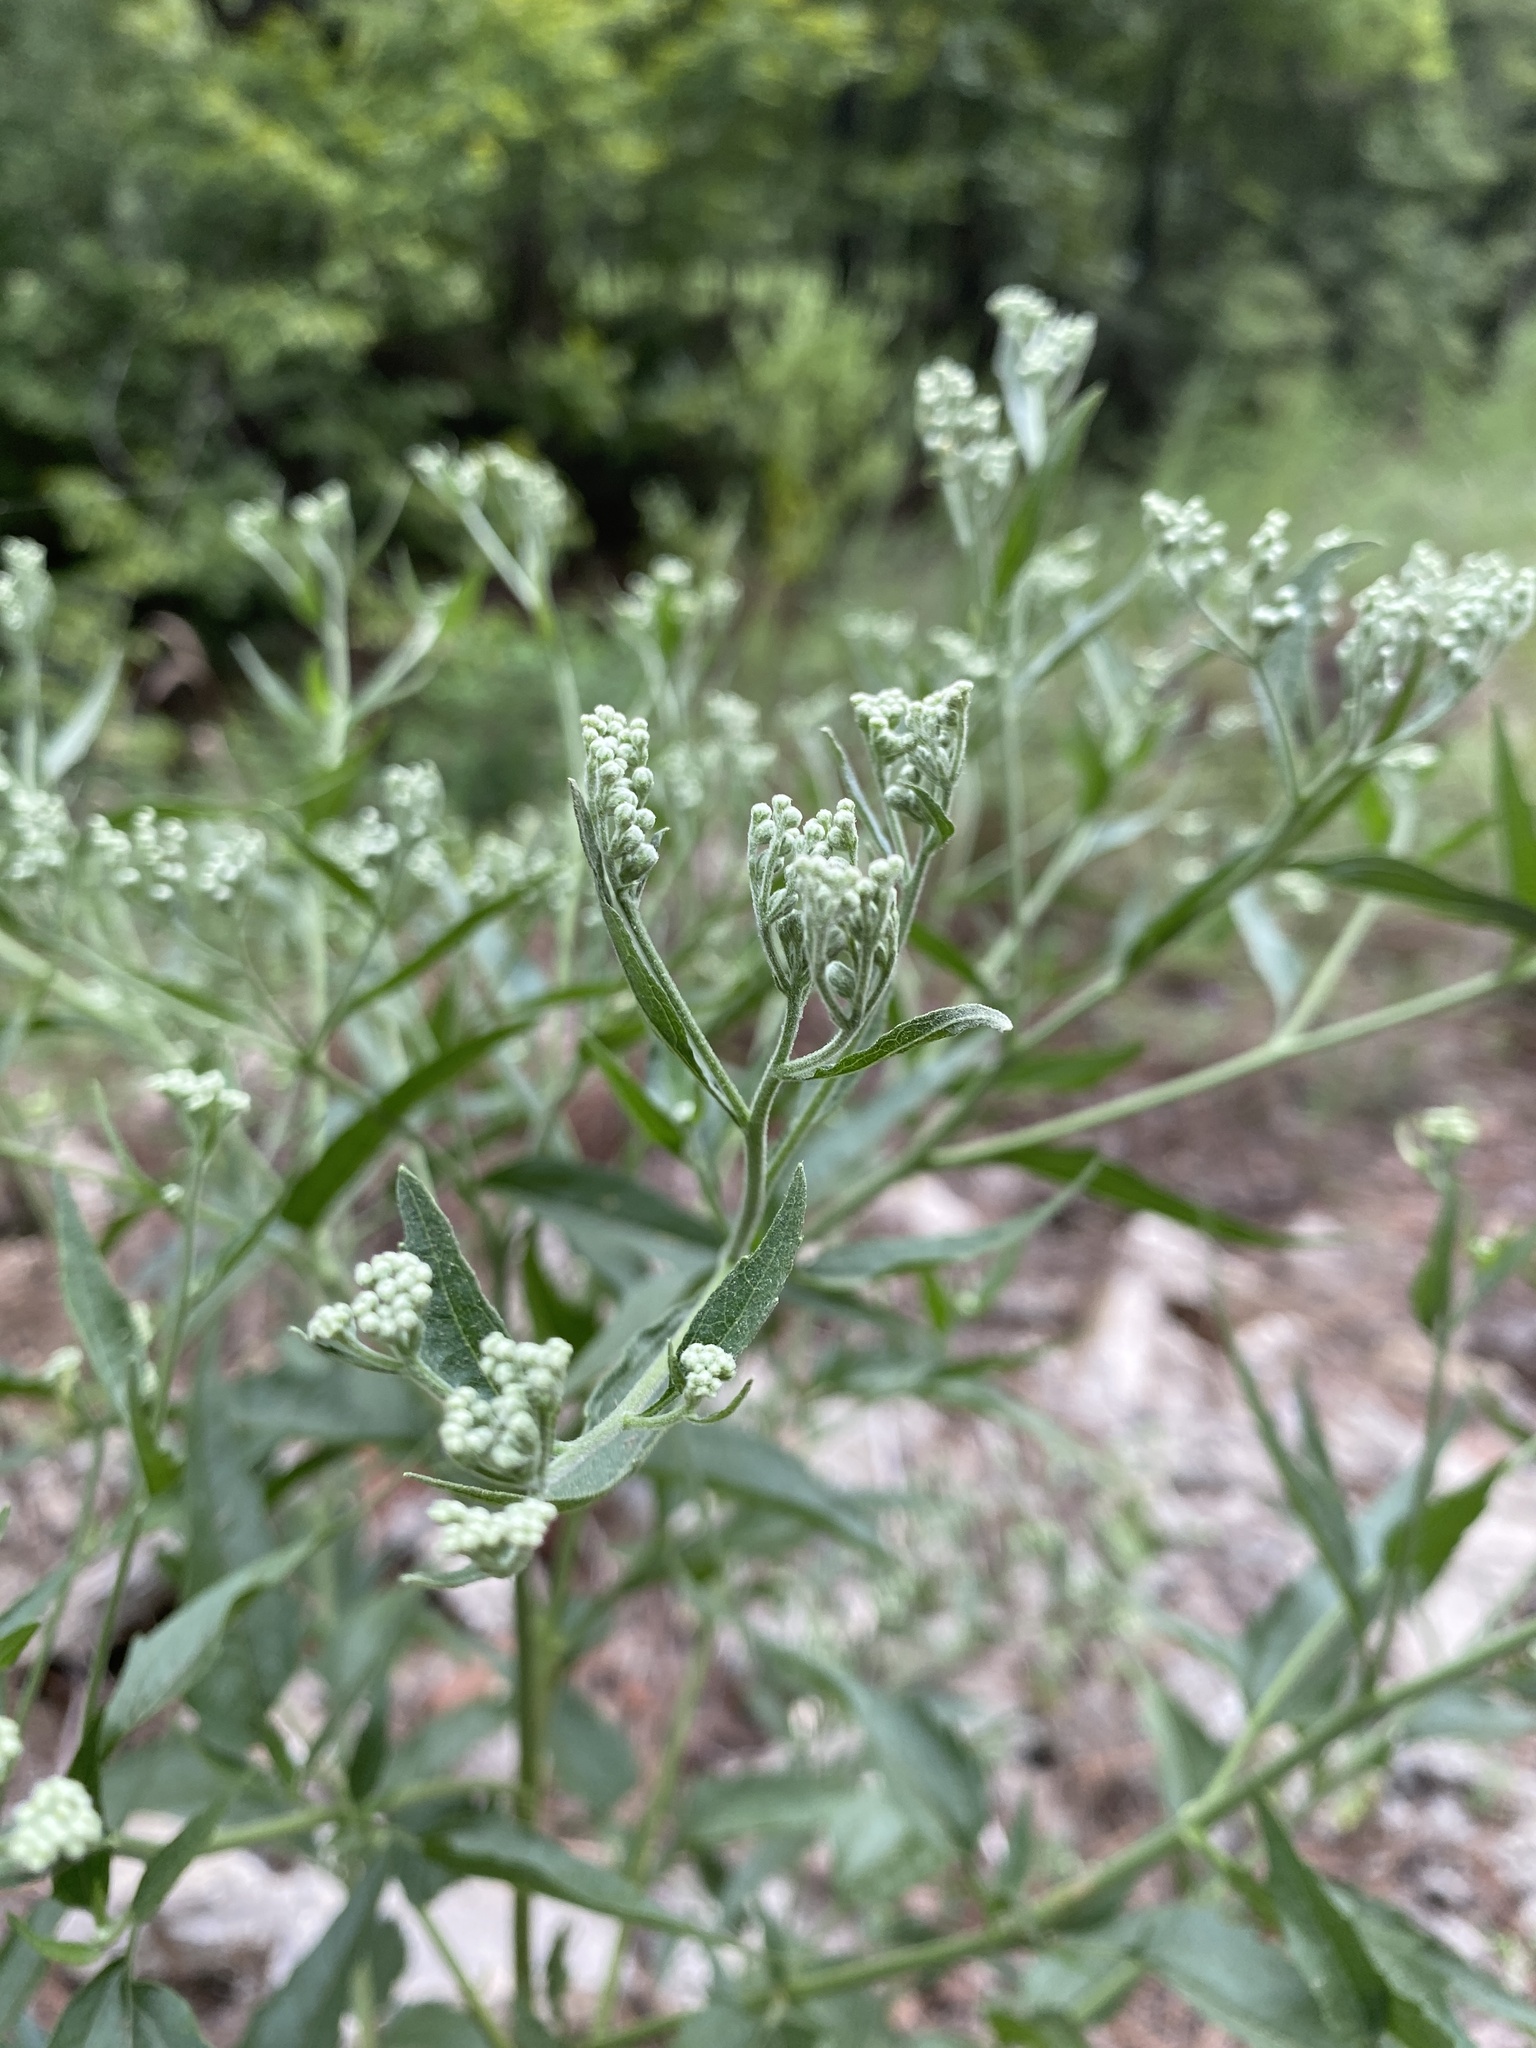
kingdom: Plantae
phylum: Tracheophyta
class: Magnoliopsida
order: Asterales
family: Asteraceae
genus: Eupatorium
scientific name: Eupatorium serotinum
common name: Late boneset
